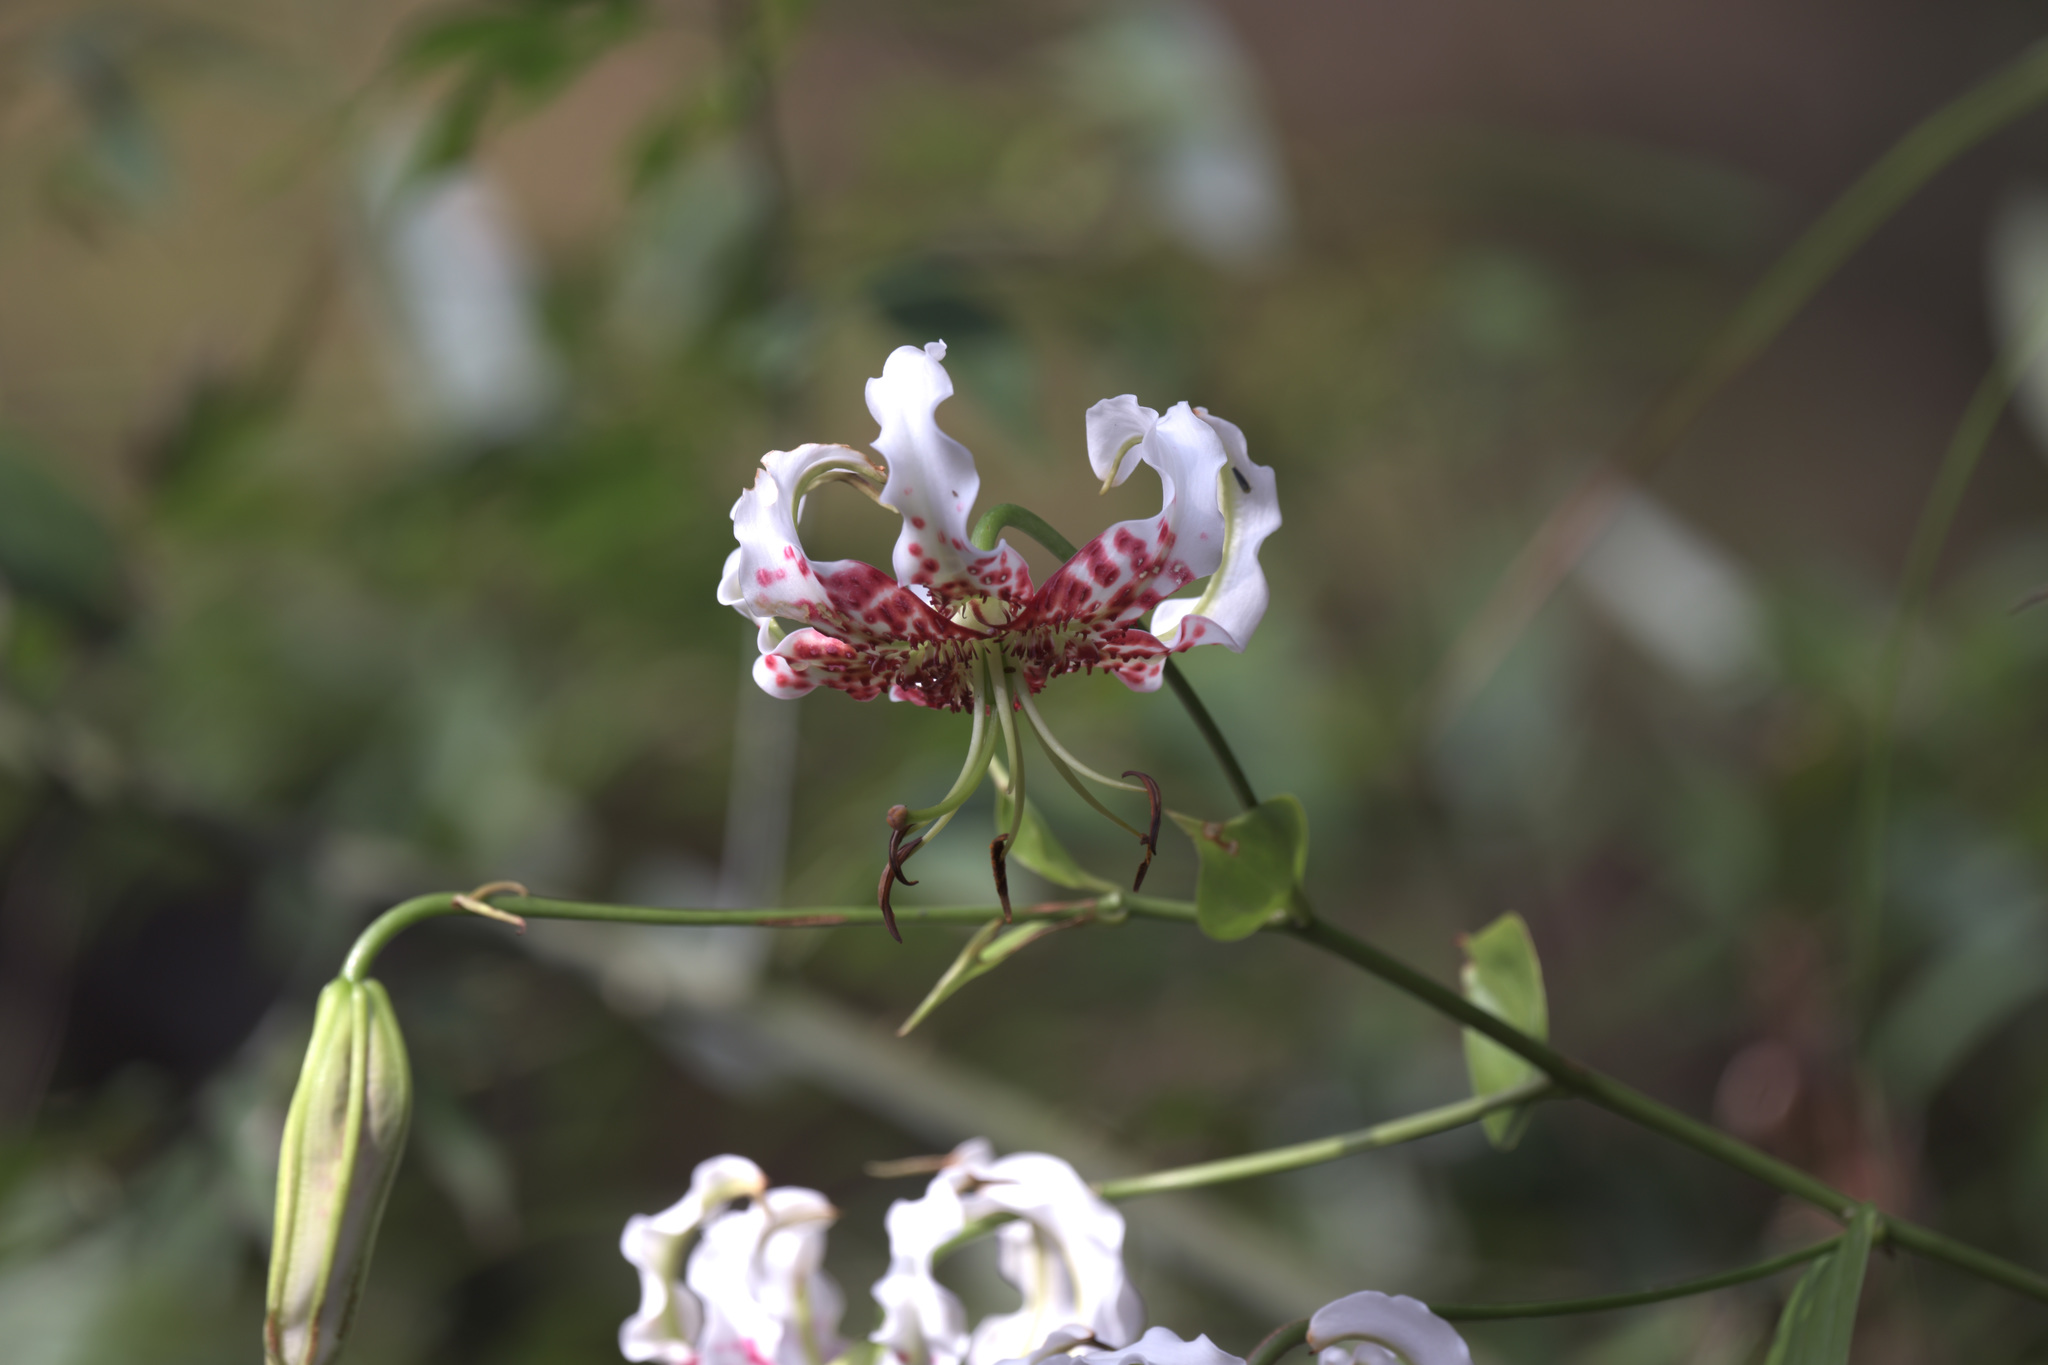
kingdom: Plantae
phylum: Tracheophyta
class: Liliopsida
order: Liliales
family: Liliaceae
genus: Lilium
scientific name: Lilium speciosum
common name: Japanese lily
